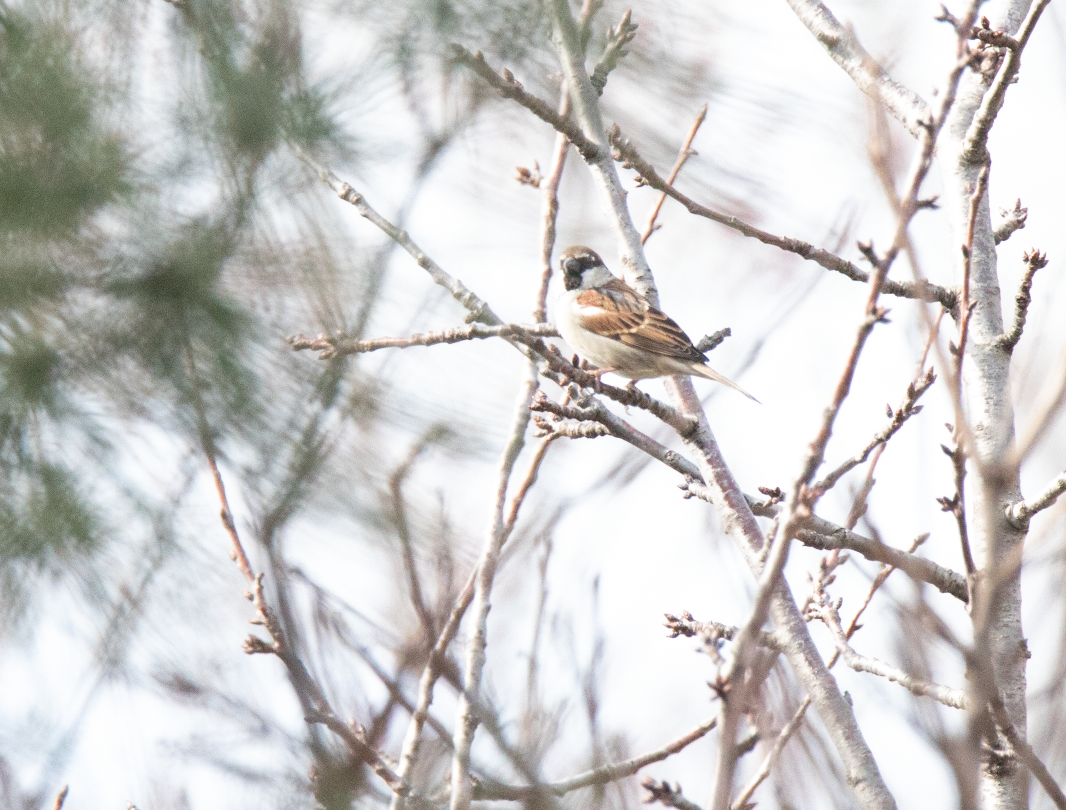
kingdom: Animalia
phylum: Chordata
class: Aves
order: Passeriformes
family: Passeridae
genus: Passer
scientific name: Passer italiae
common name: Italian sparrow
